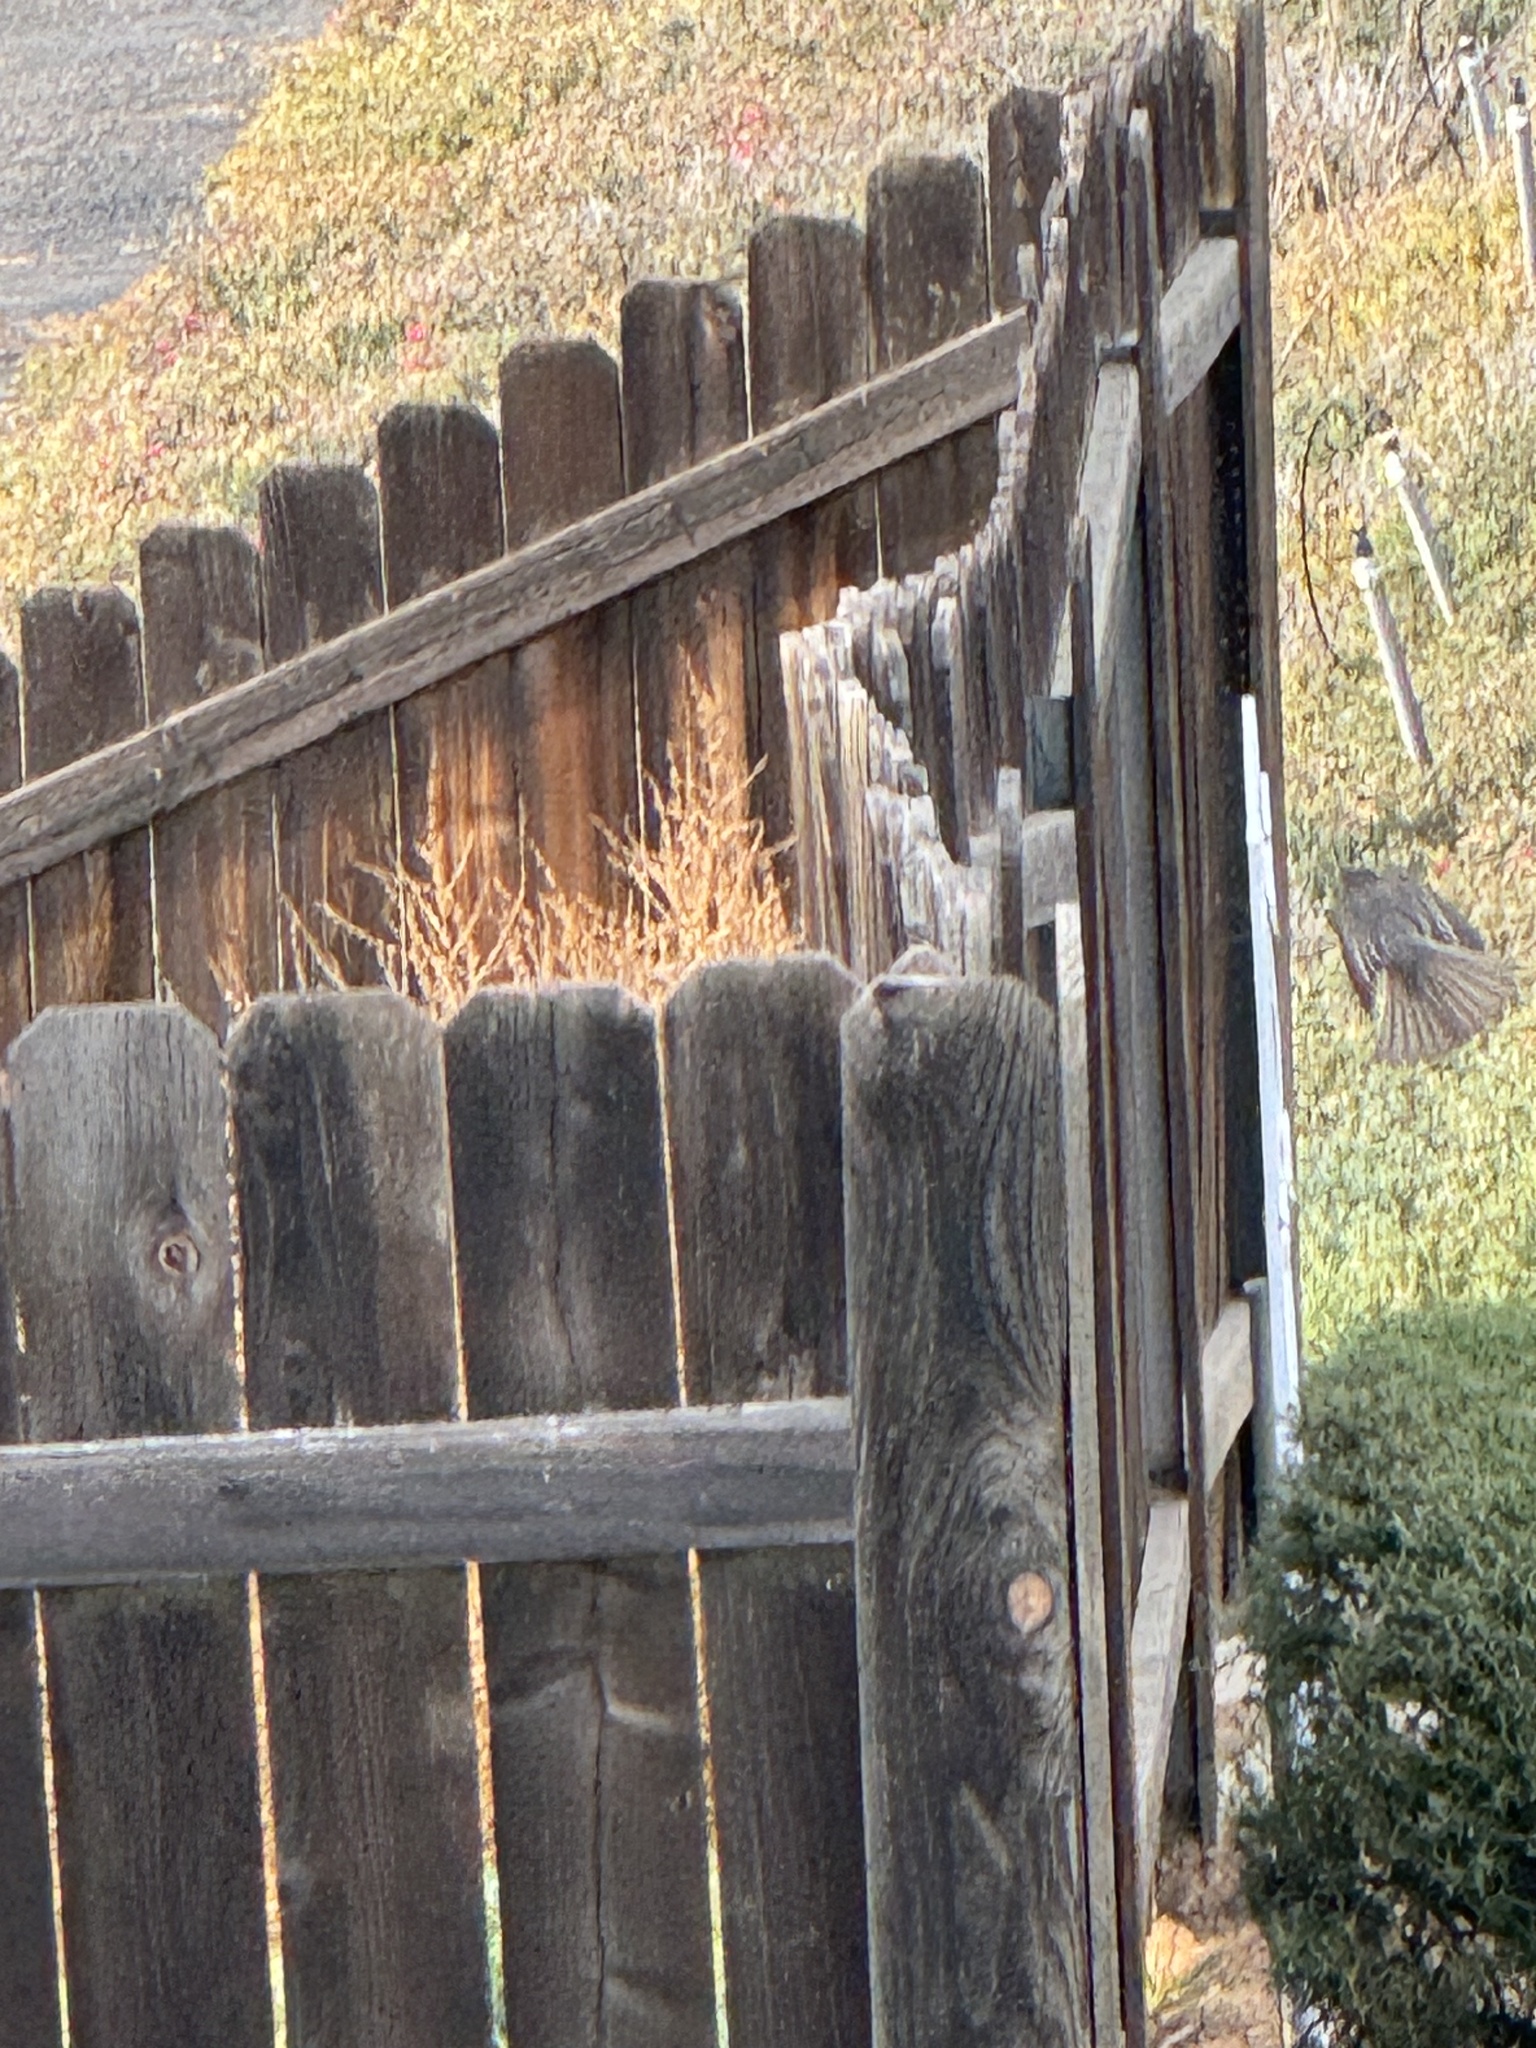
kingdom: Animalia
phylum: Chordata
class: Aves
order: Passeriformes
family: Tyrannidae
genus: Sayornis
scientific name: Sayornis nigricans
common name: Black phoebe
